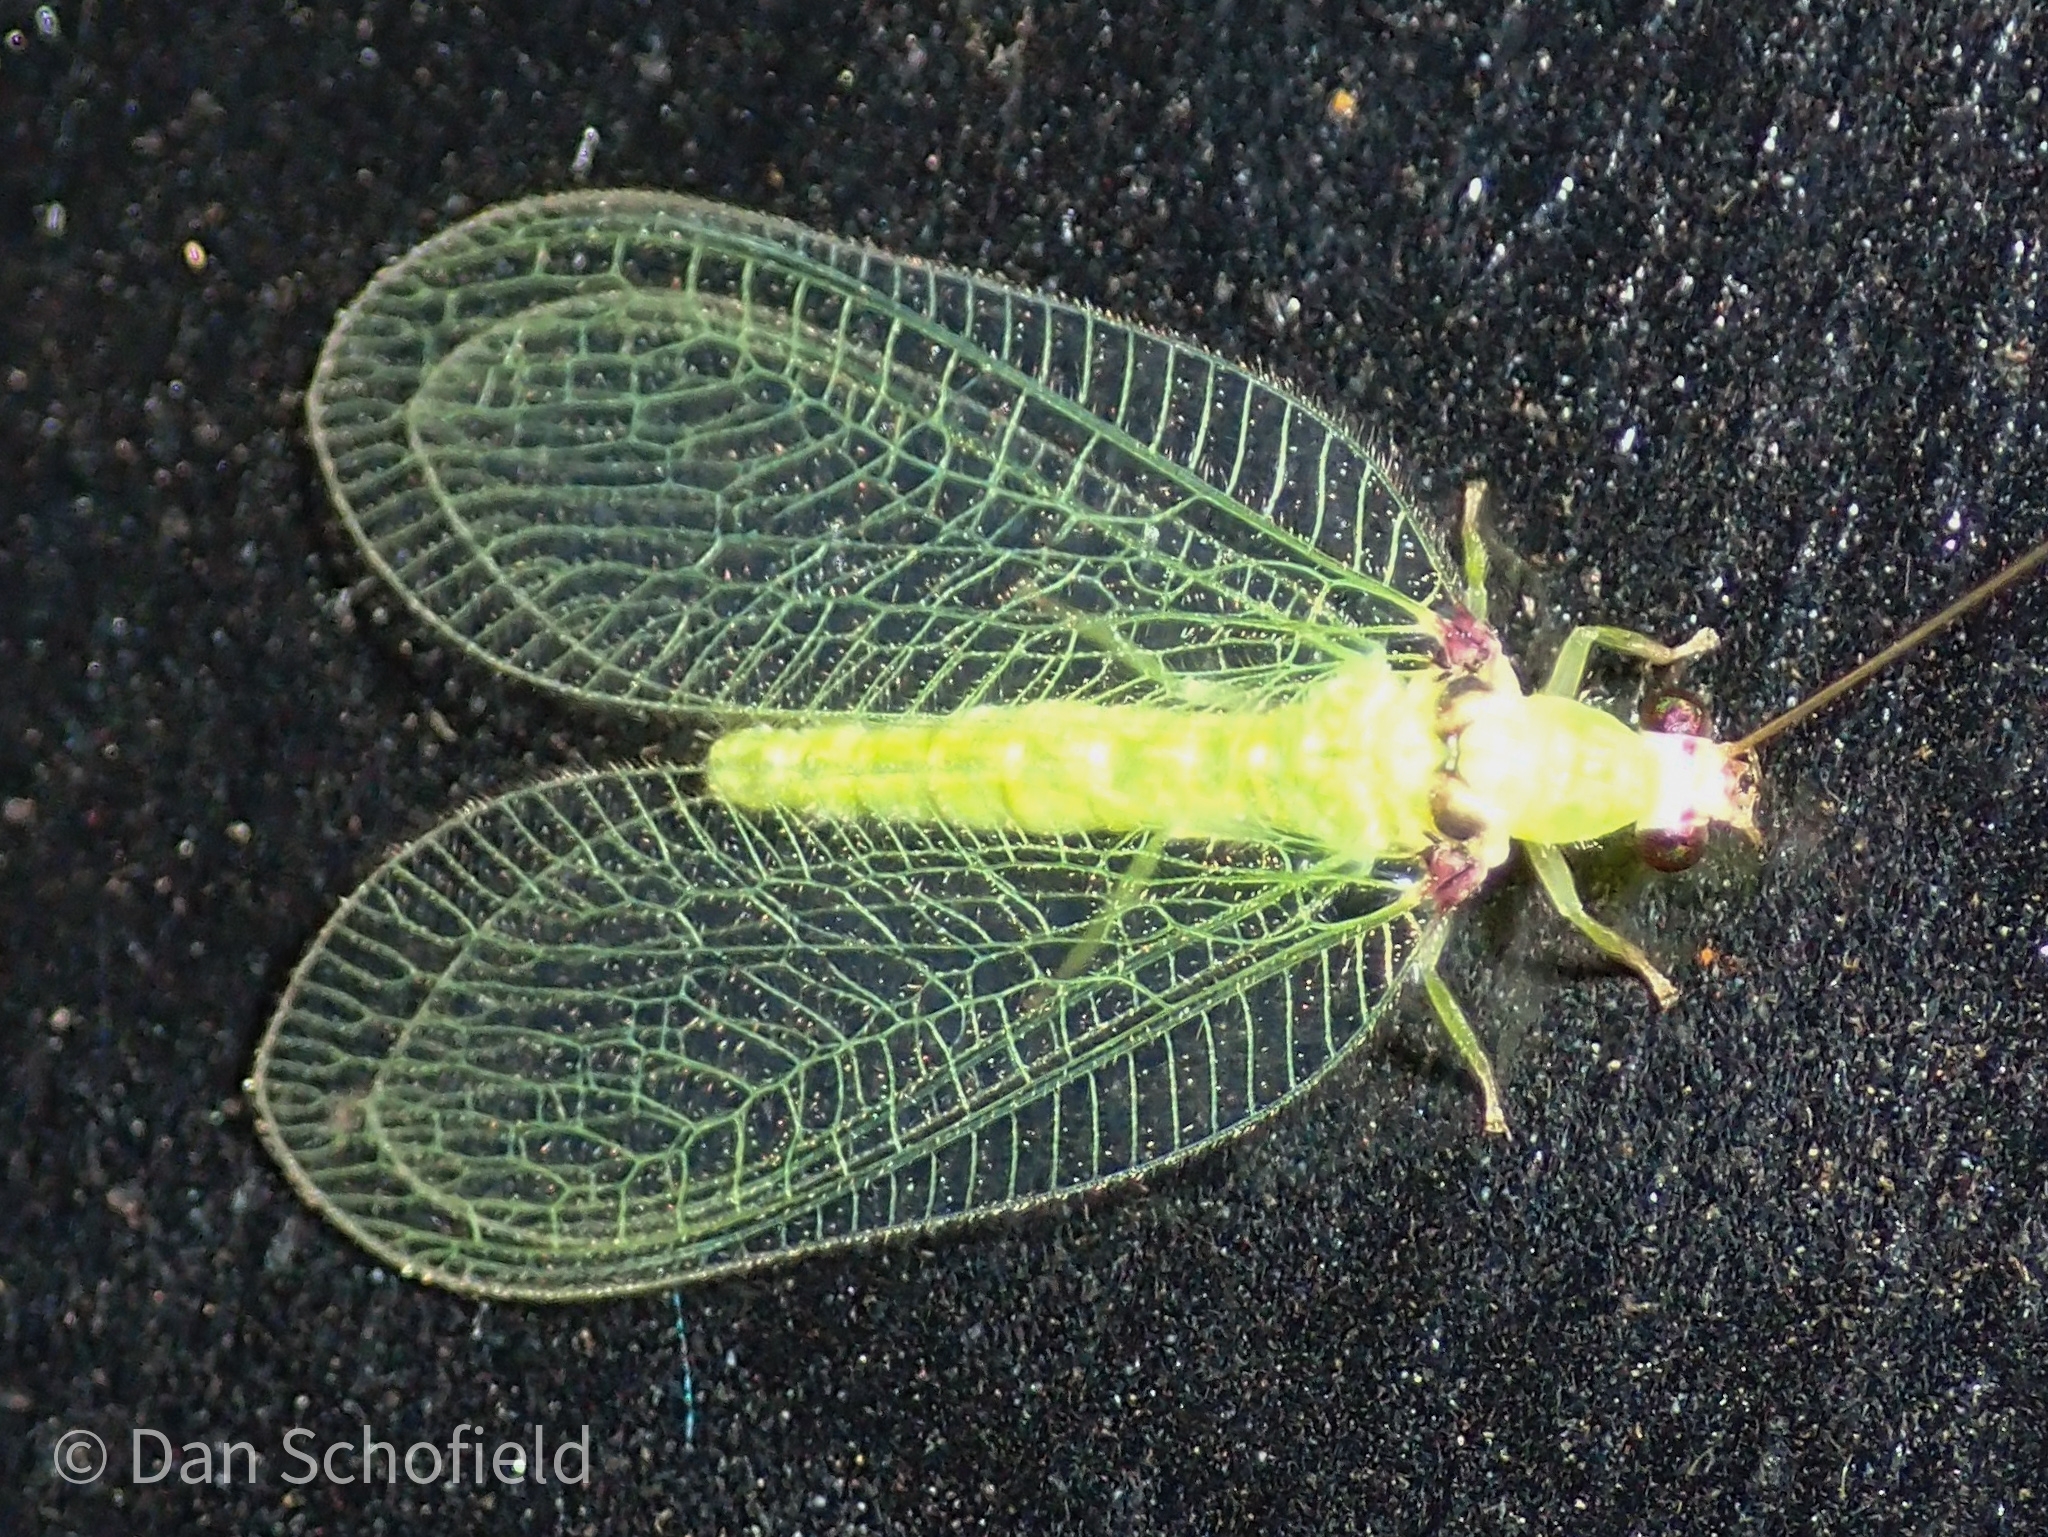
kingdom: Animalia
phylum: Arthropoda
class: Insecta
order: Neuroptera
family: Chrysopidae
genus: Chrysocerca
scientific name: Chrysocerca formosana
